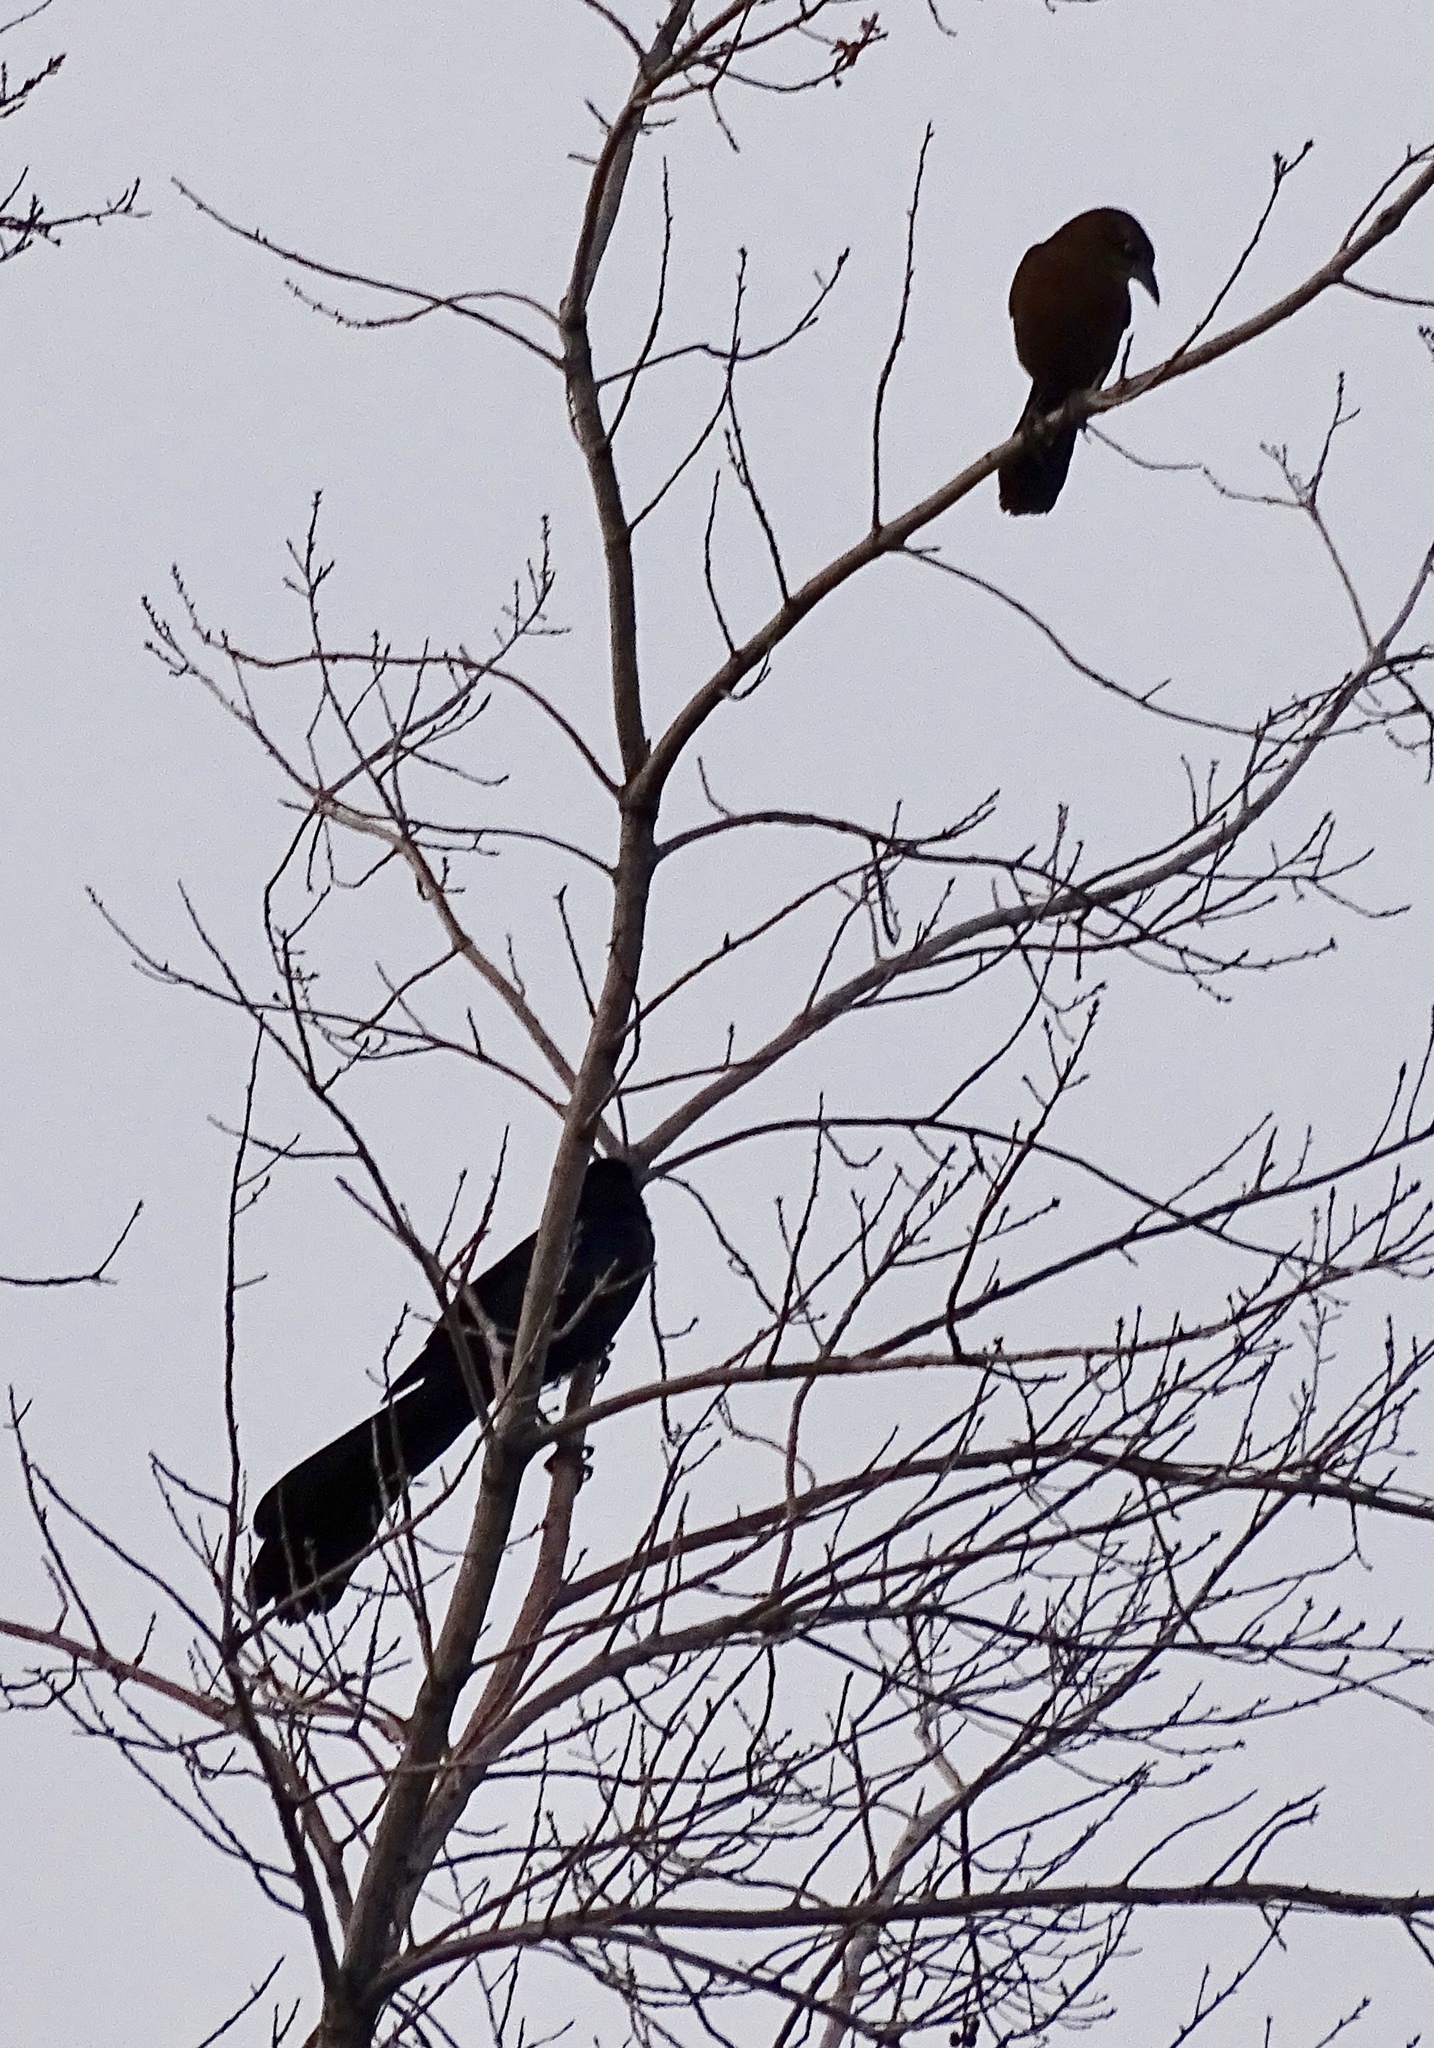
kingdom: Animalia
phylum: Chordata
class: Aves
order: Passeriformes
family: Icteridae
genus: Quiscalus
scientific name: Quiscalus mexicanus
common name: Great-tailed grackle
